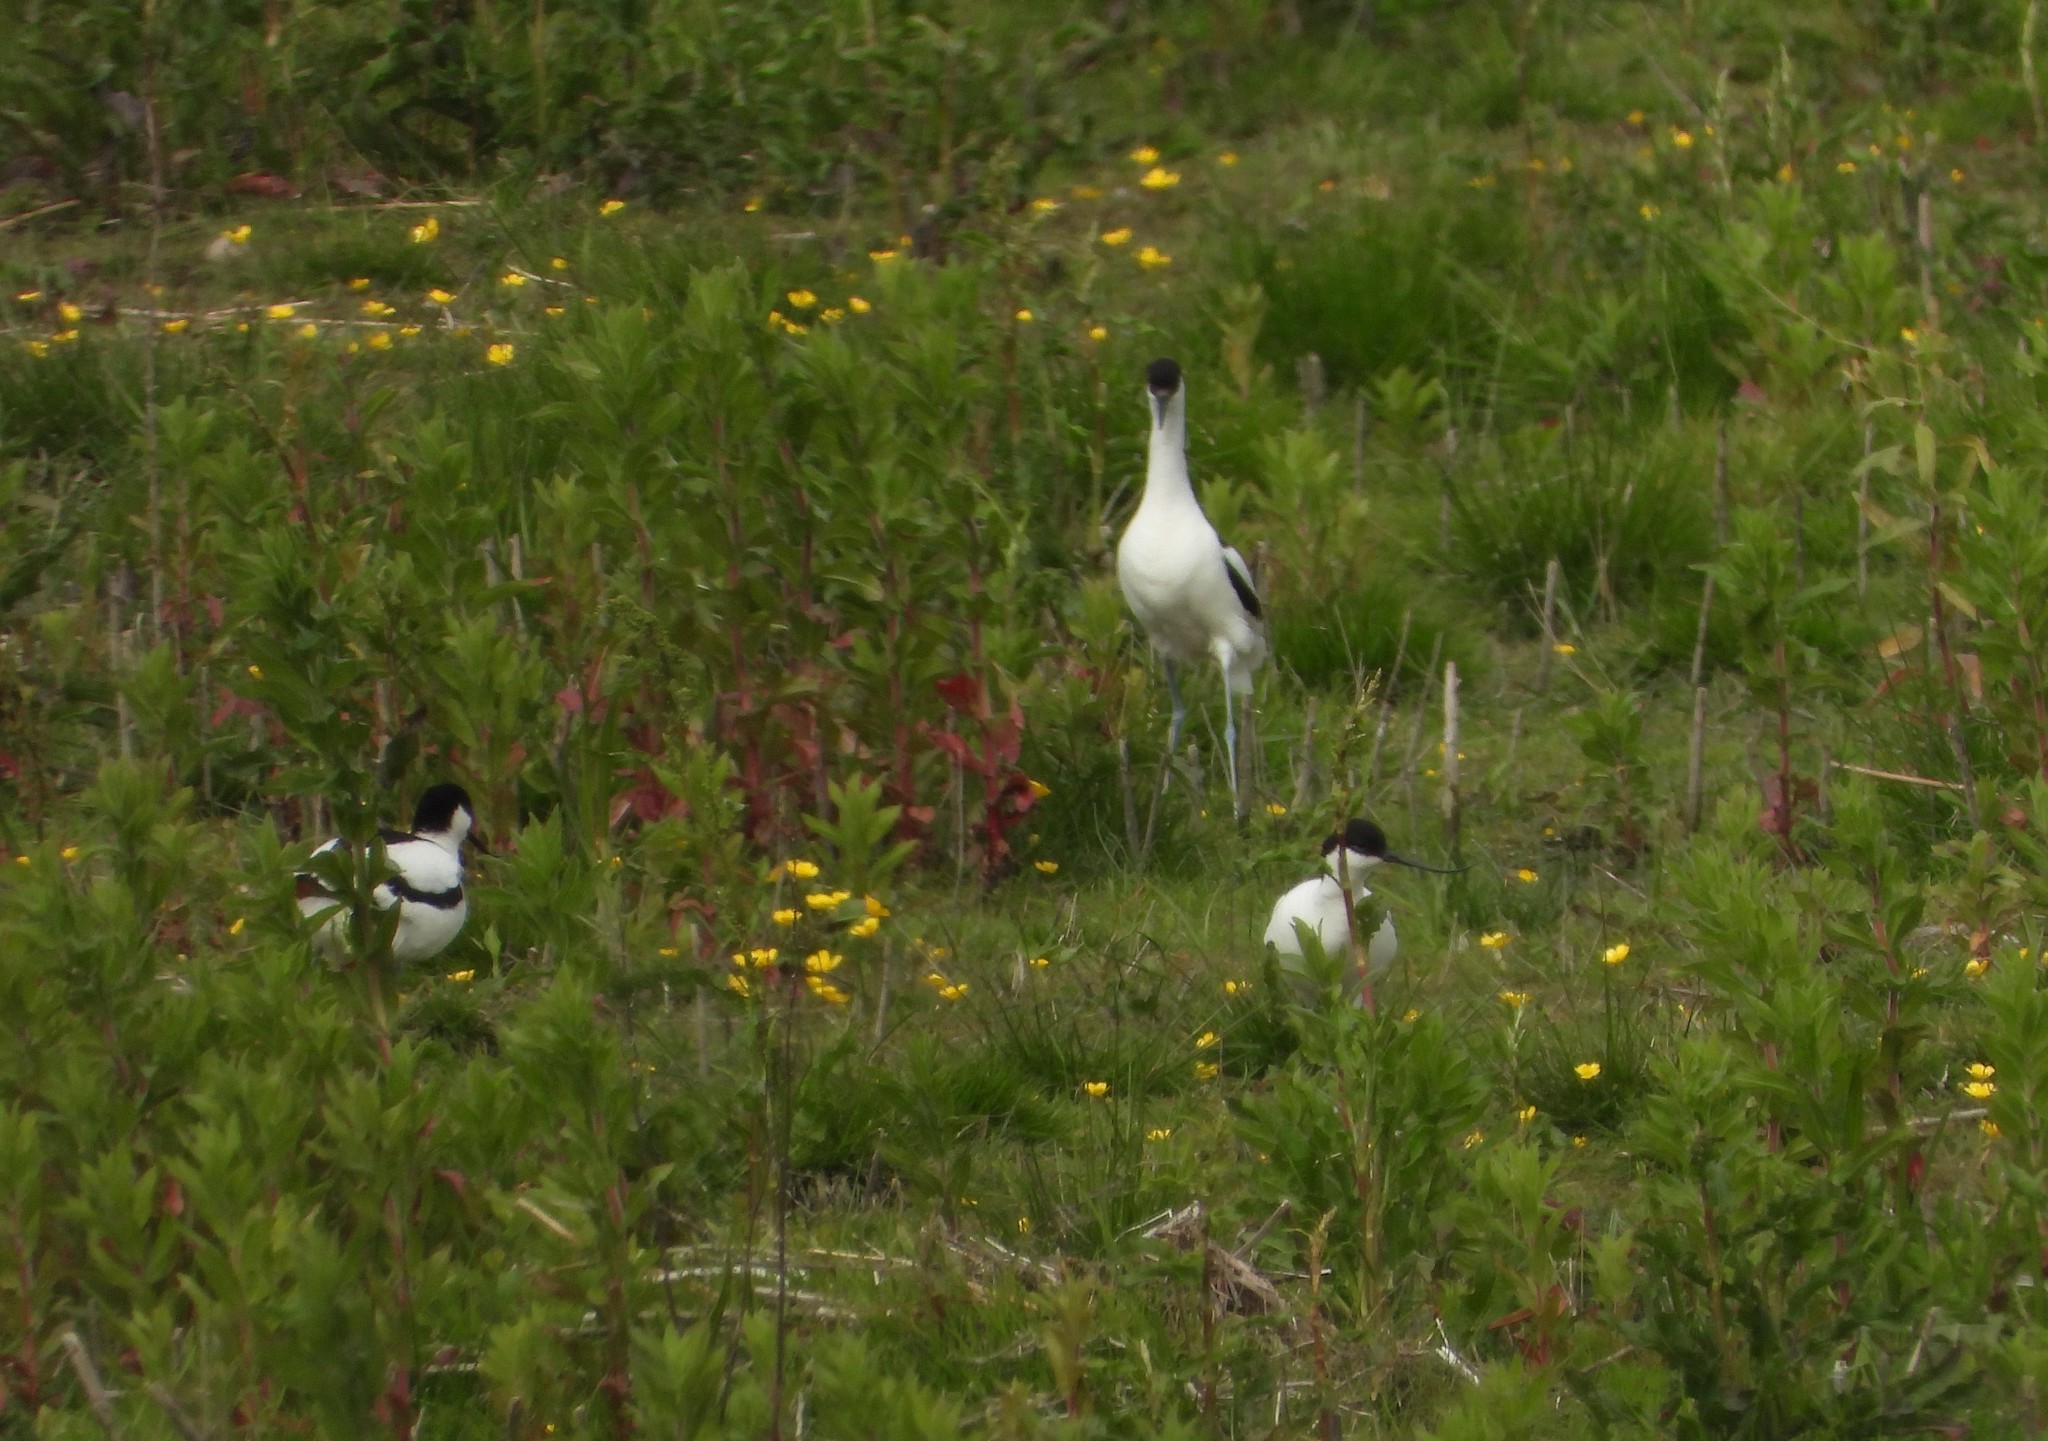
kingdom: Animalia
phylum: Chordata
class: Aves
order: Charadriiformes
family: Recurvirostridae
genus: Recurvirostra
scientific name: Recurvirostra avosetta
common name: Pied avocet
